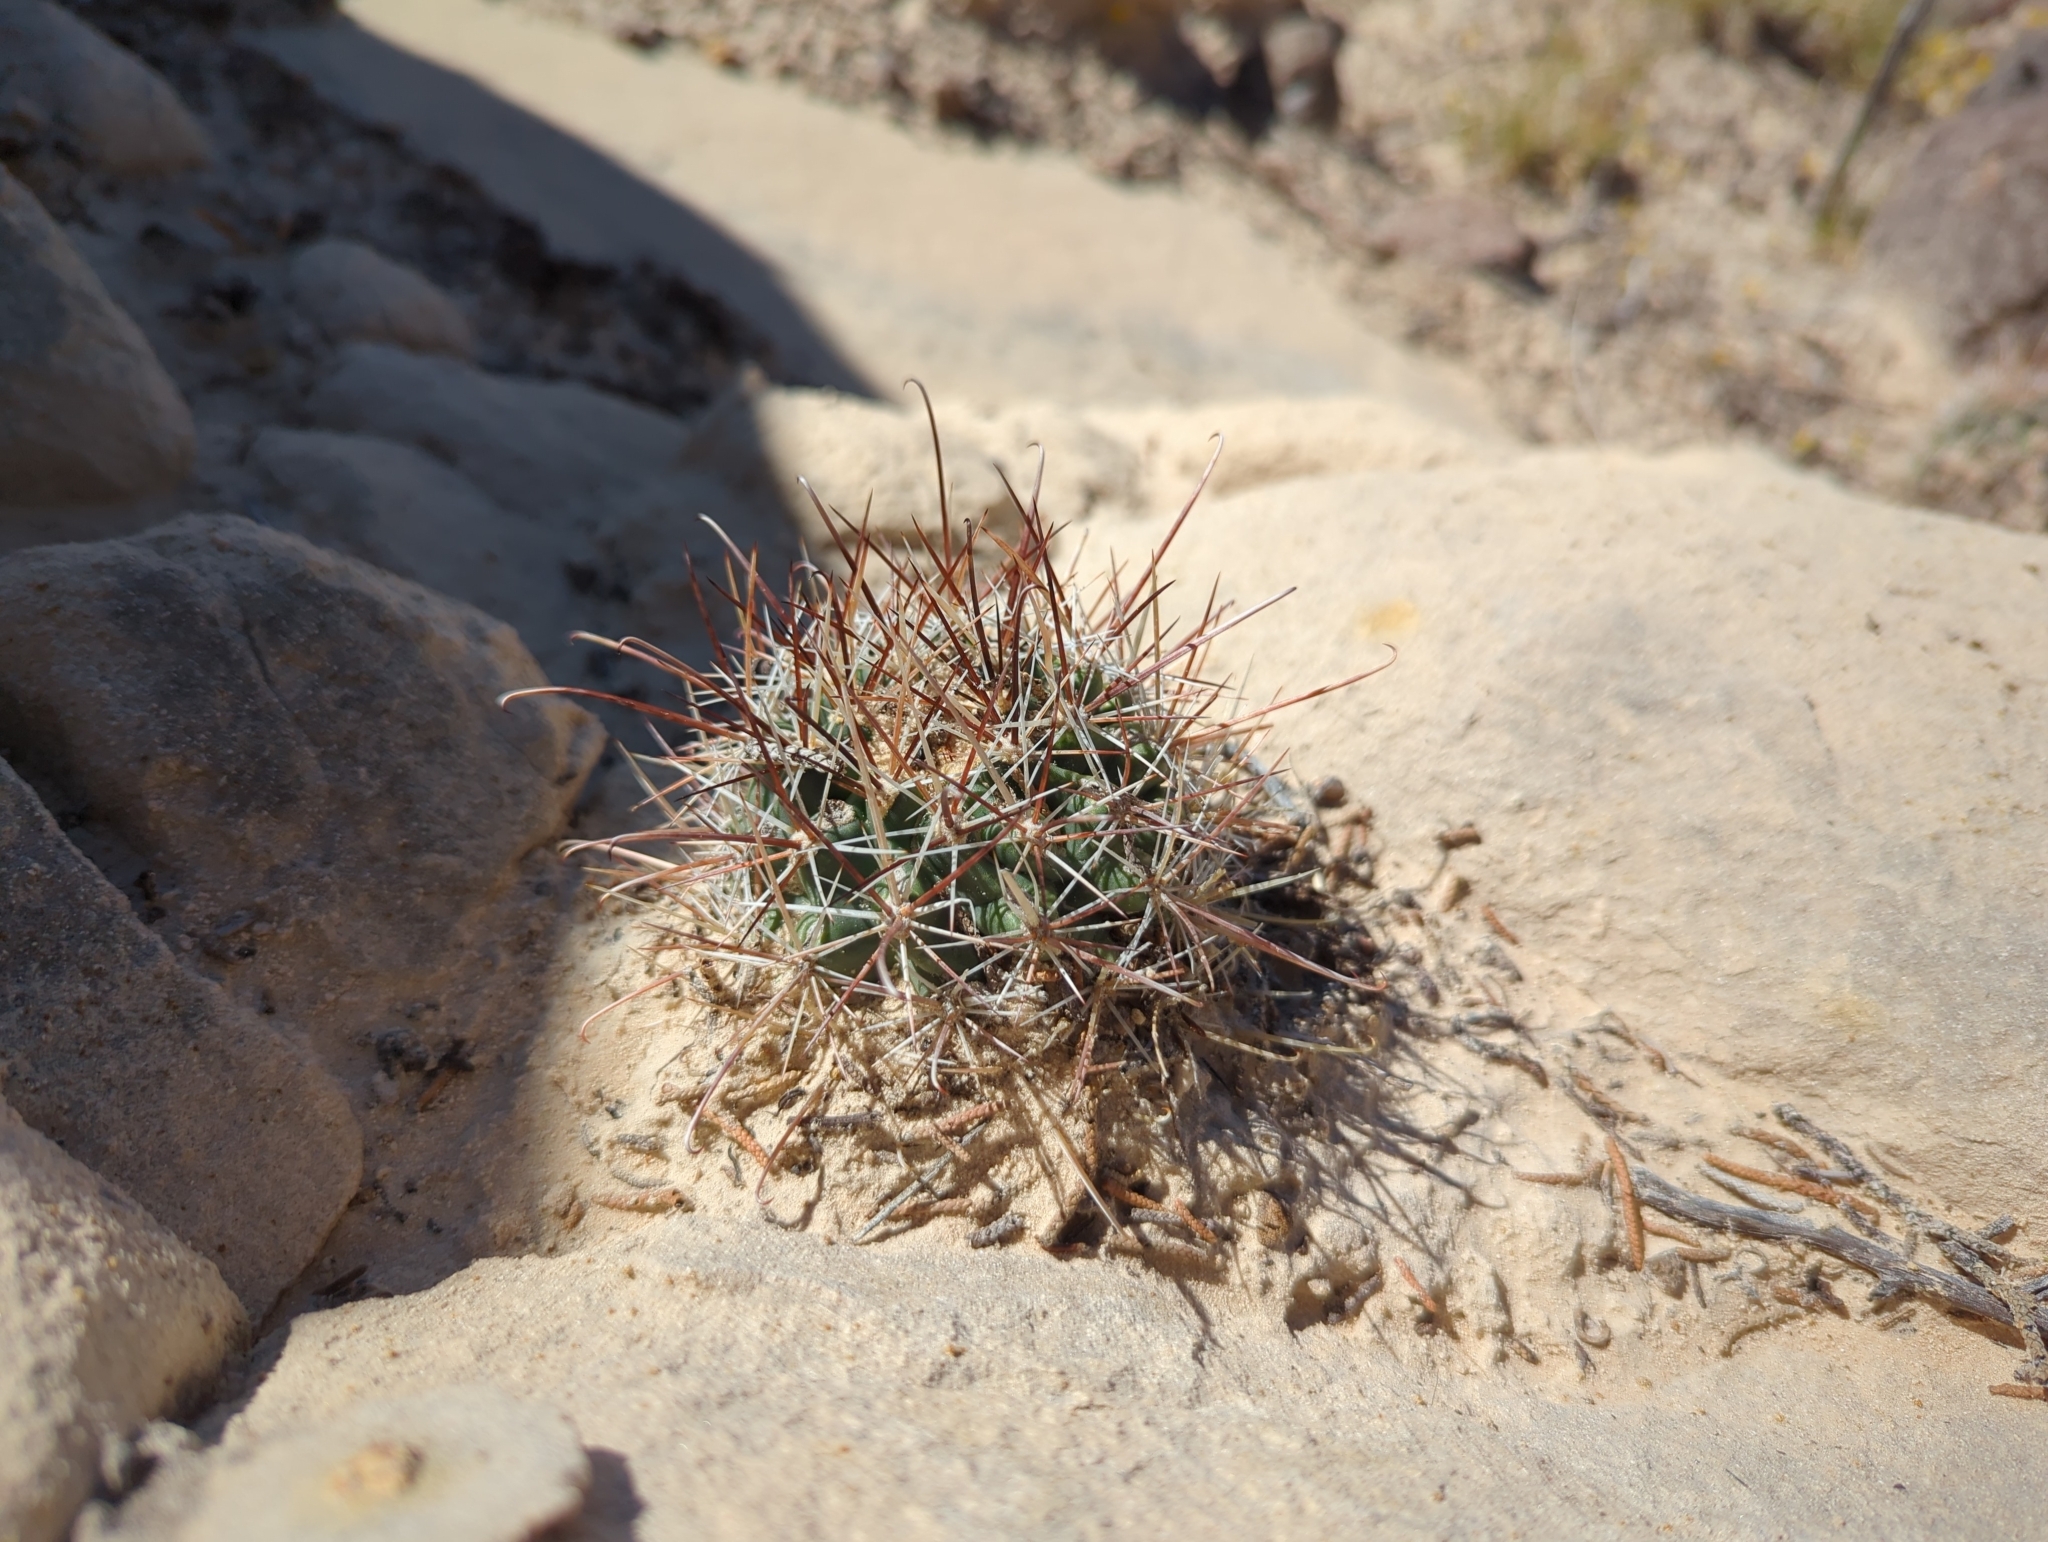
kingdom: Plantae
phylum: Tracheophyta
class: Magnoliopsida
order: Caryophyllales
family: Cactaceae
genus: Sclerocactus
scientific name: Sclerocactus parviflorus
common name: Small-flower fishhook cactus
